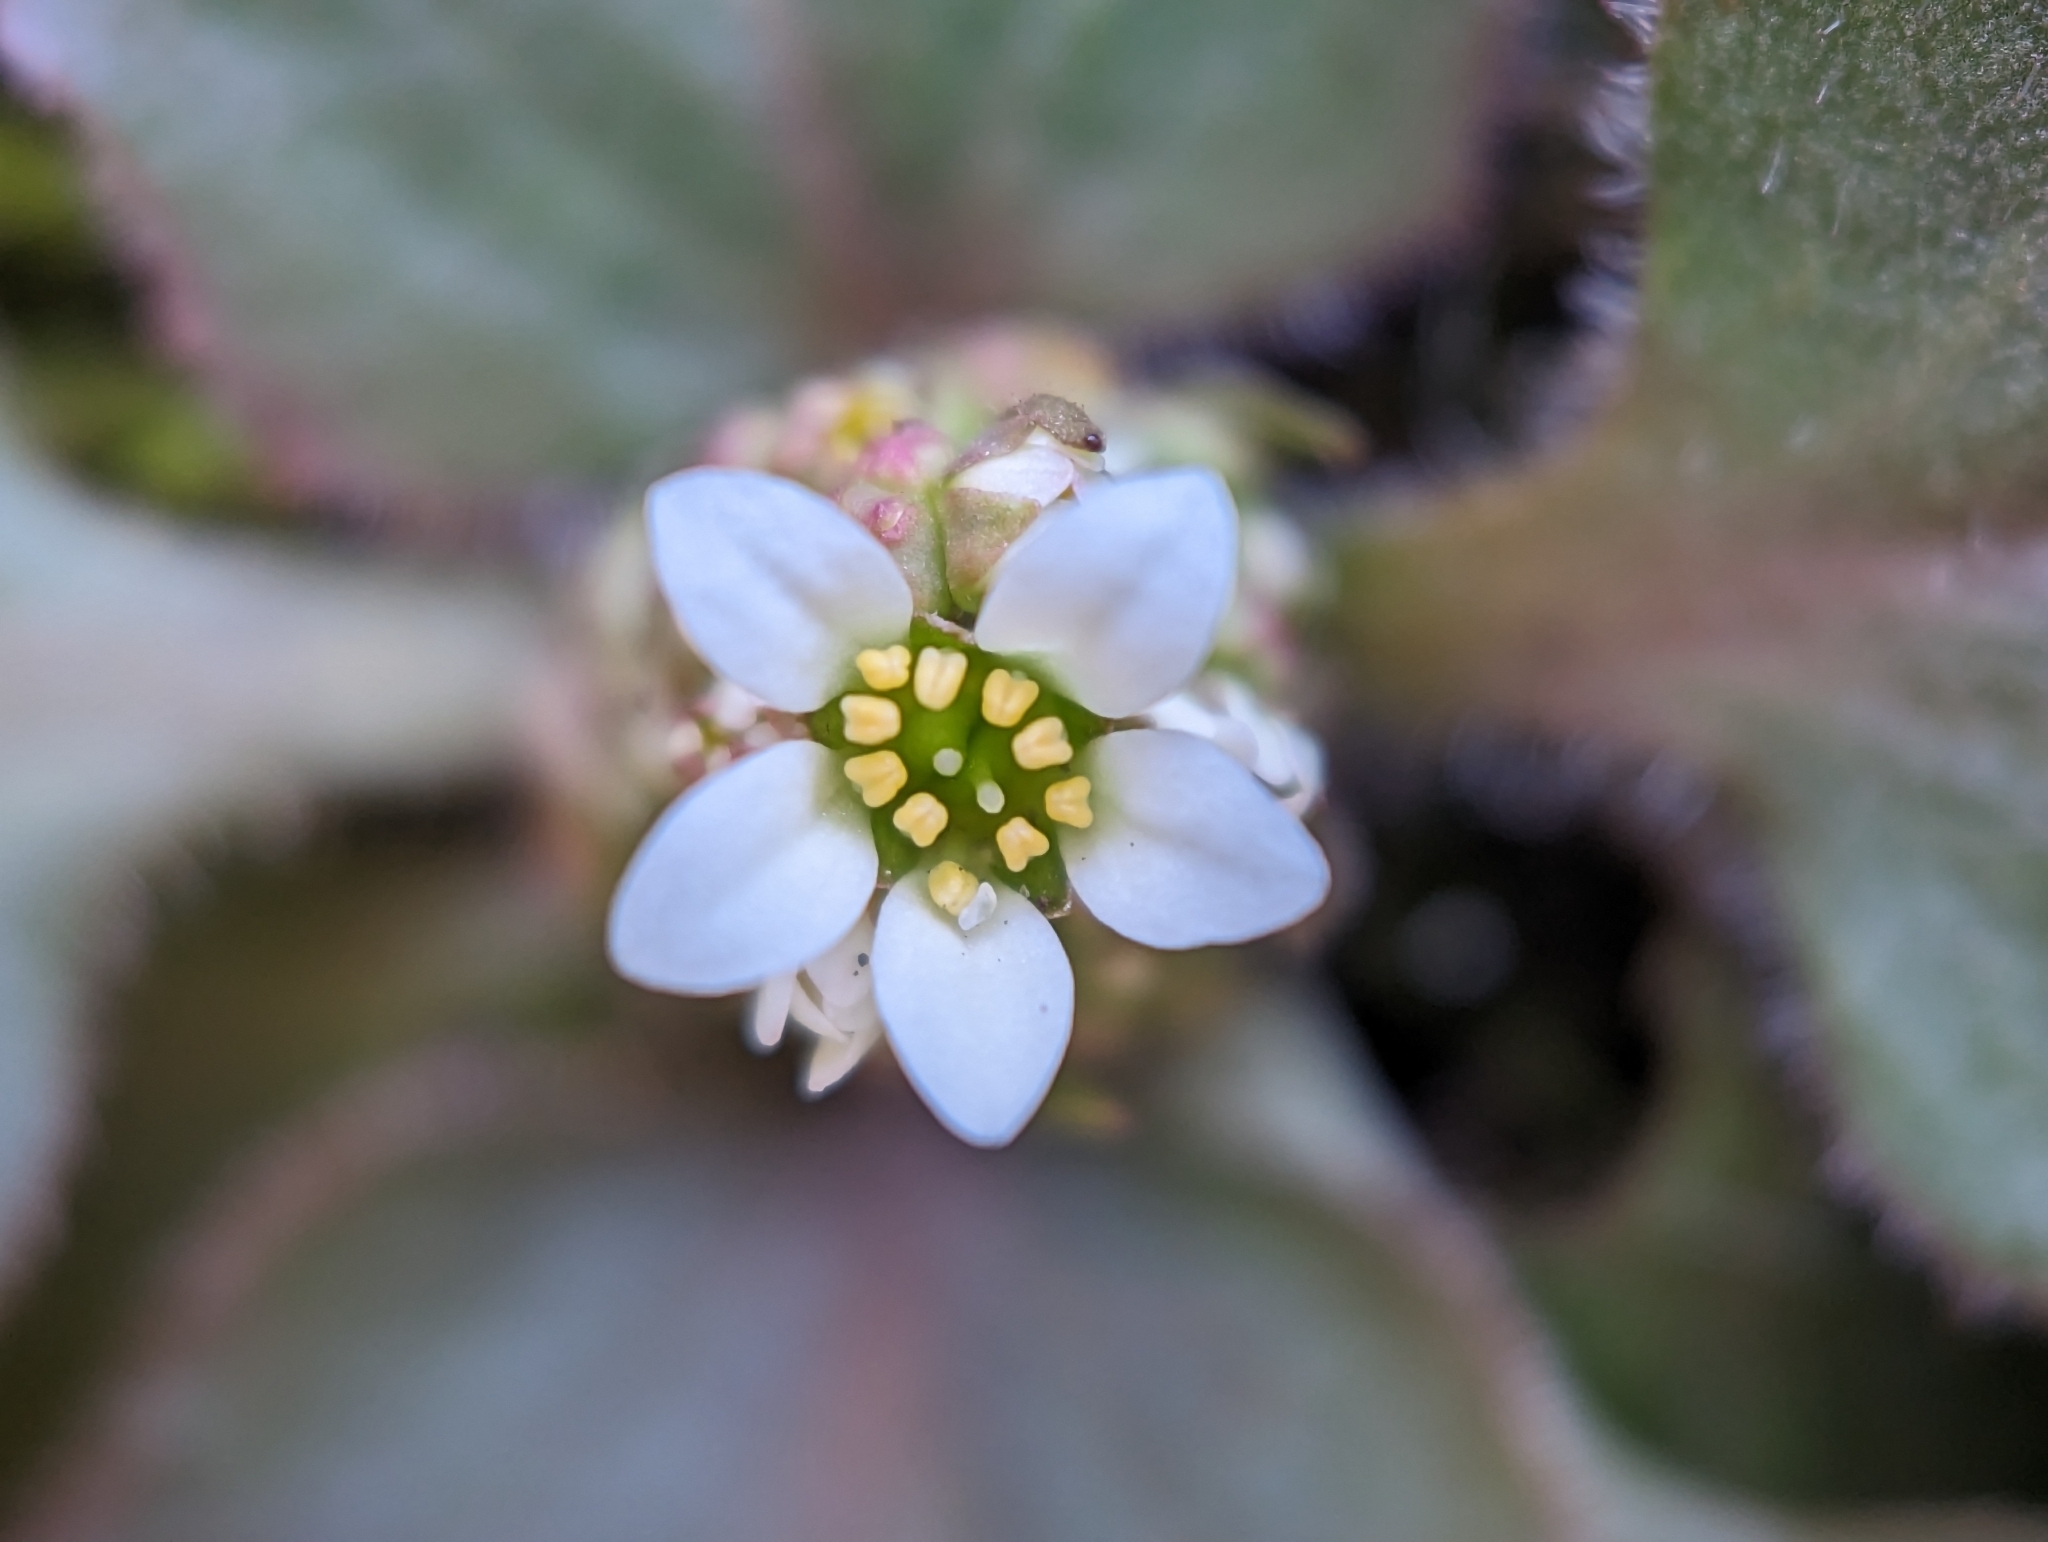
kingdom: Plantae
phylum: Tracheophyta
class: Magnoliopsida
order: Saxifragales
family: Saxifragaceae
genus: Micranthes
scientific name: Micranthes virginiensis
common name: Early saxifrage
